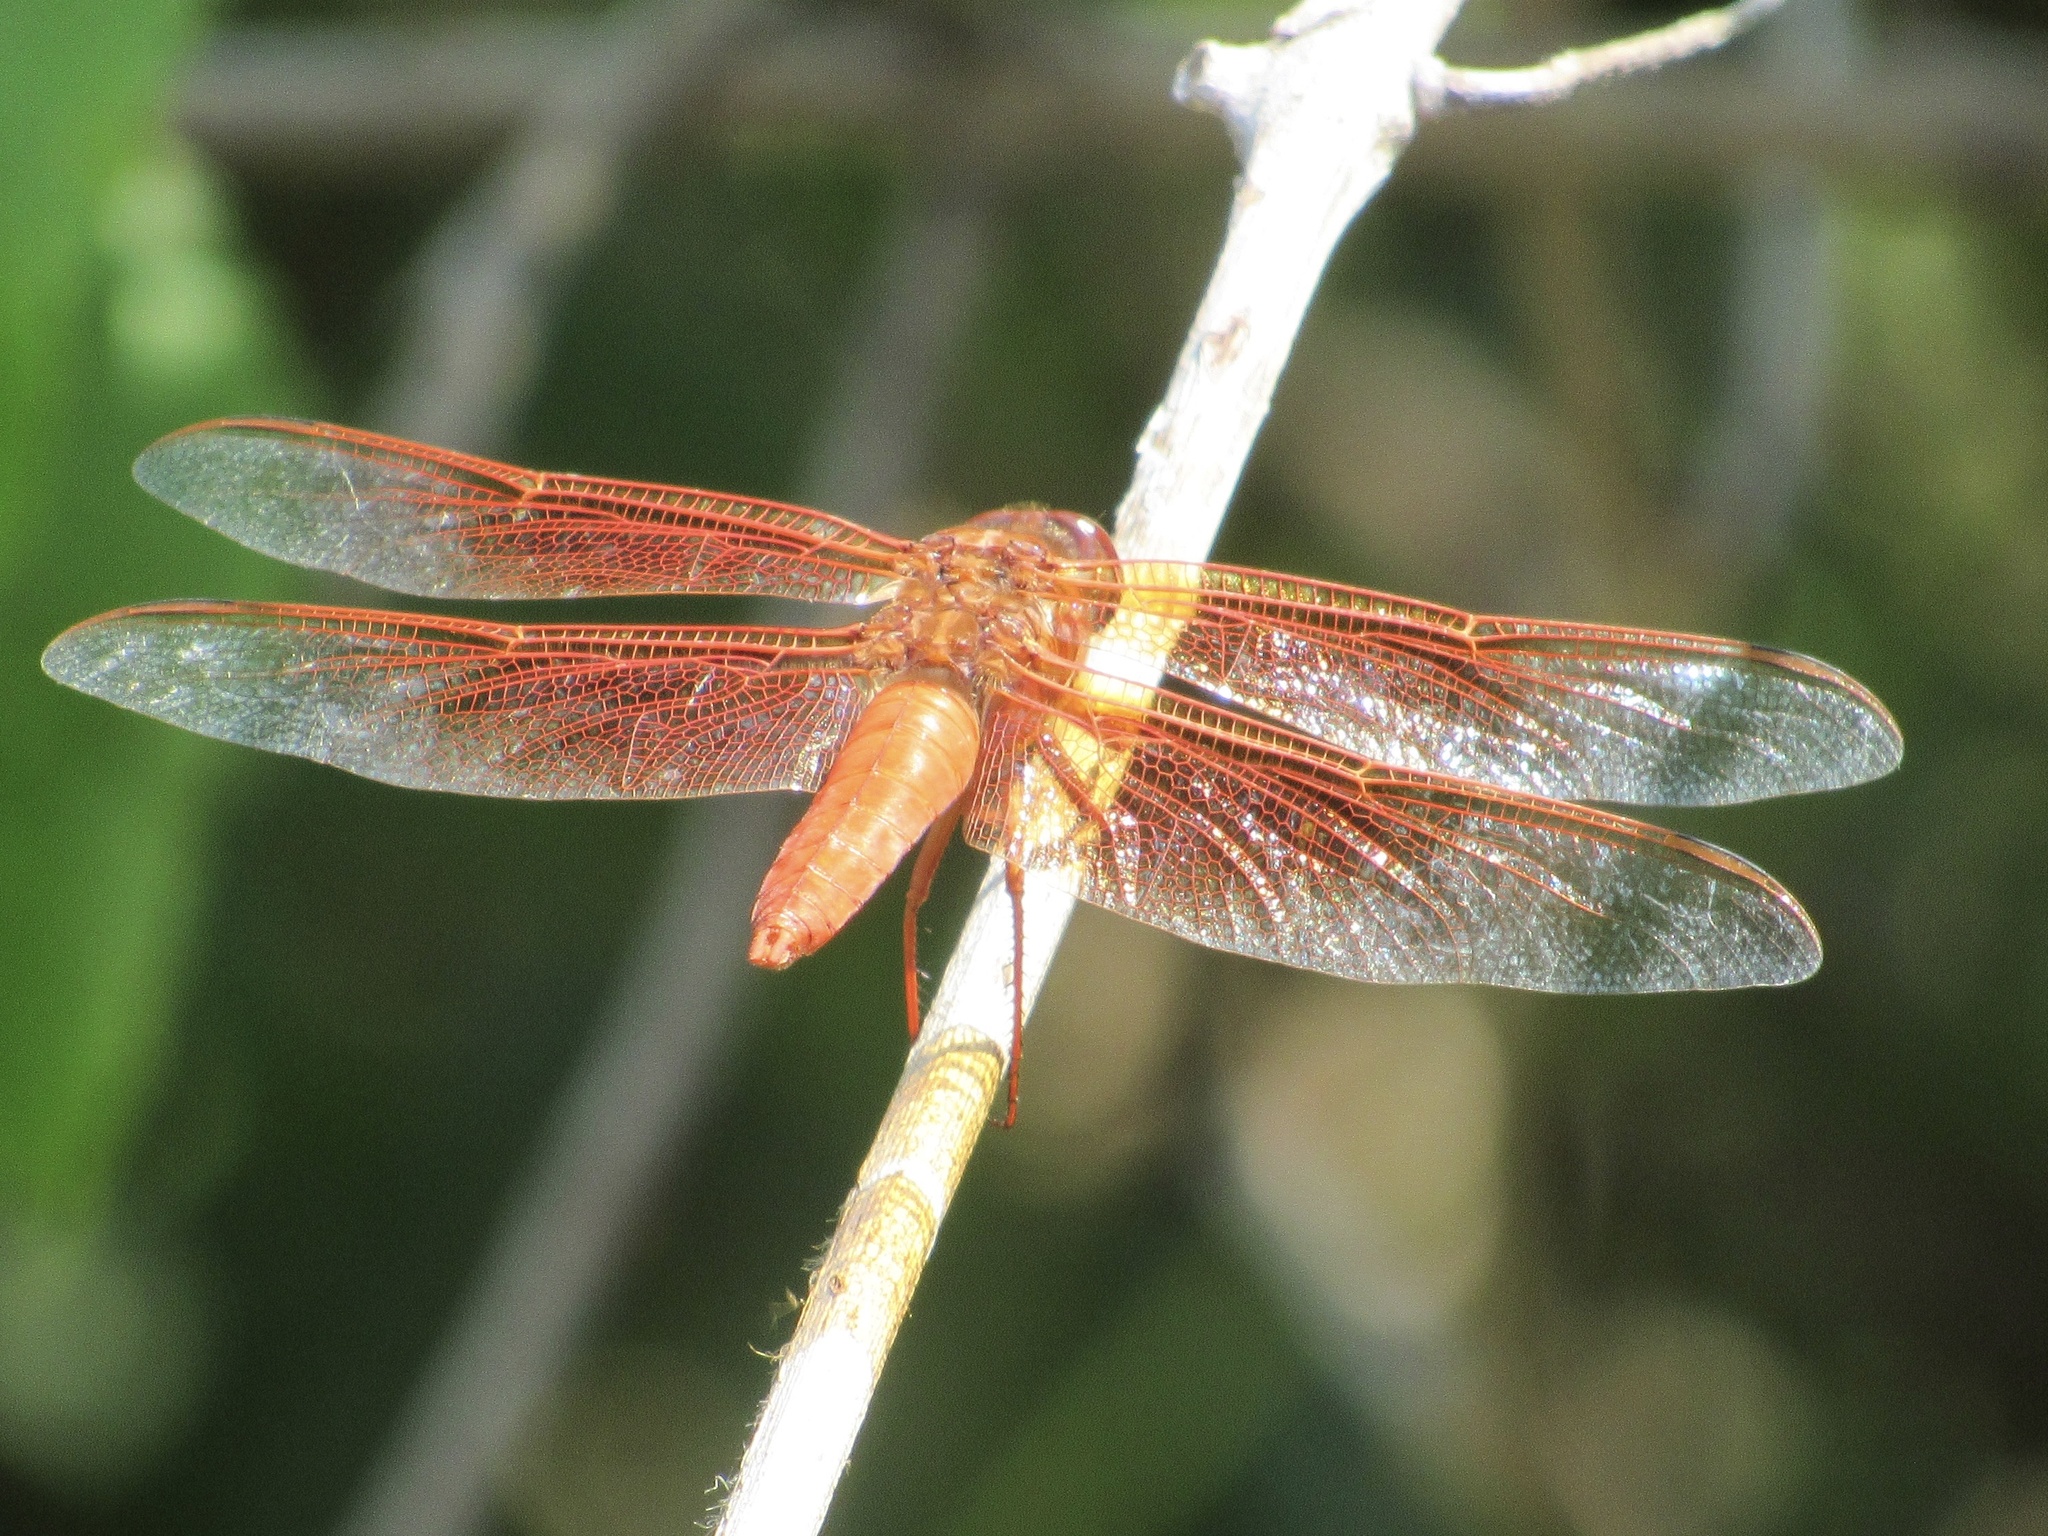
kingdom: Animalia
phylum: Arthropoda
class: Insecta
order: Odonata
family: Libellulidae
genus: Libellula
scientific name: Libellula saturata
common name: Flame skimmer
